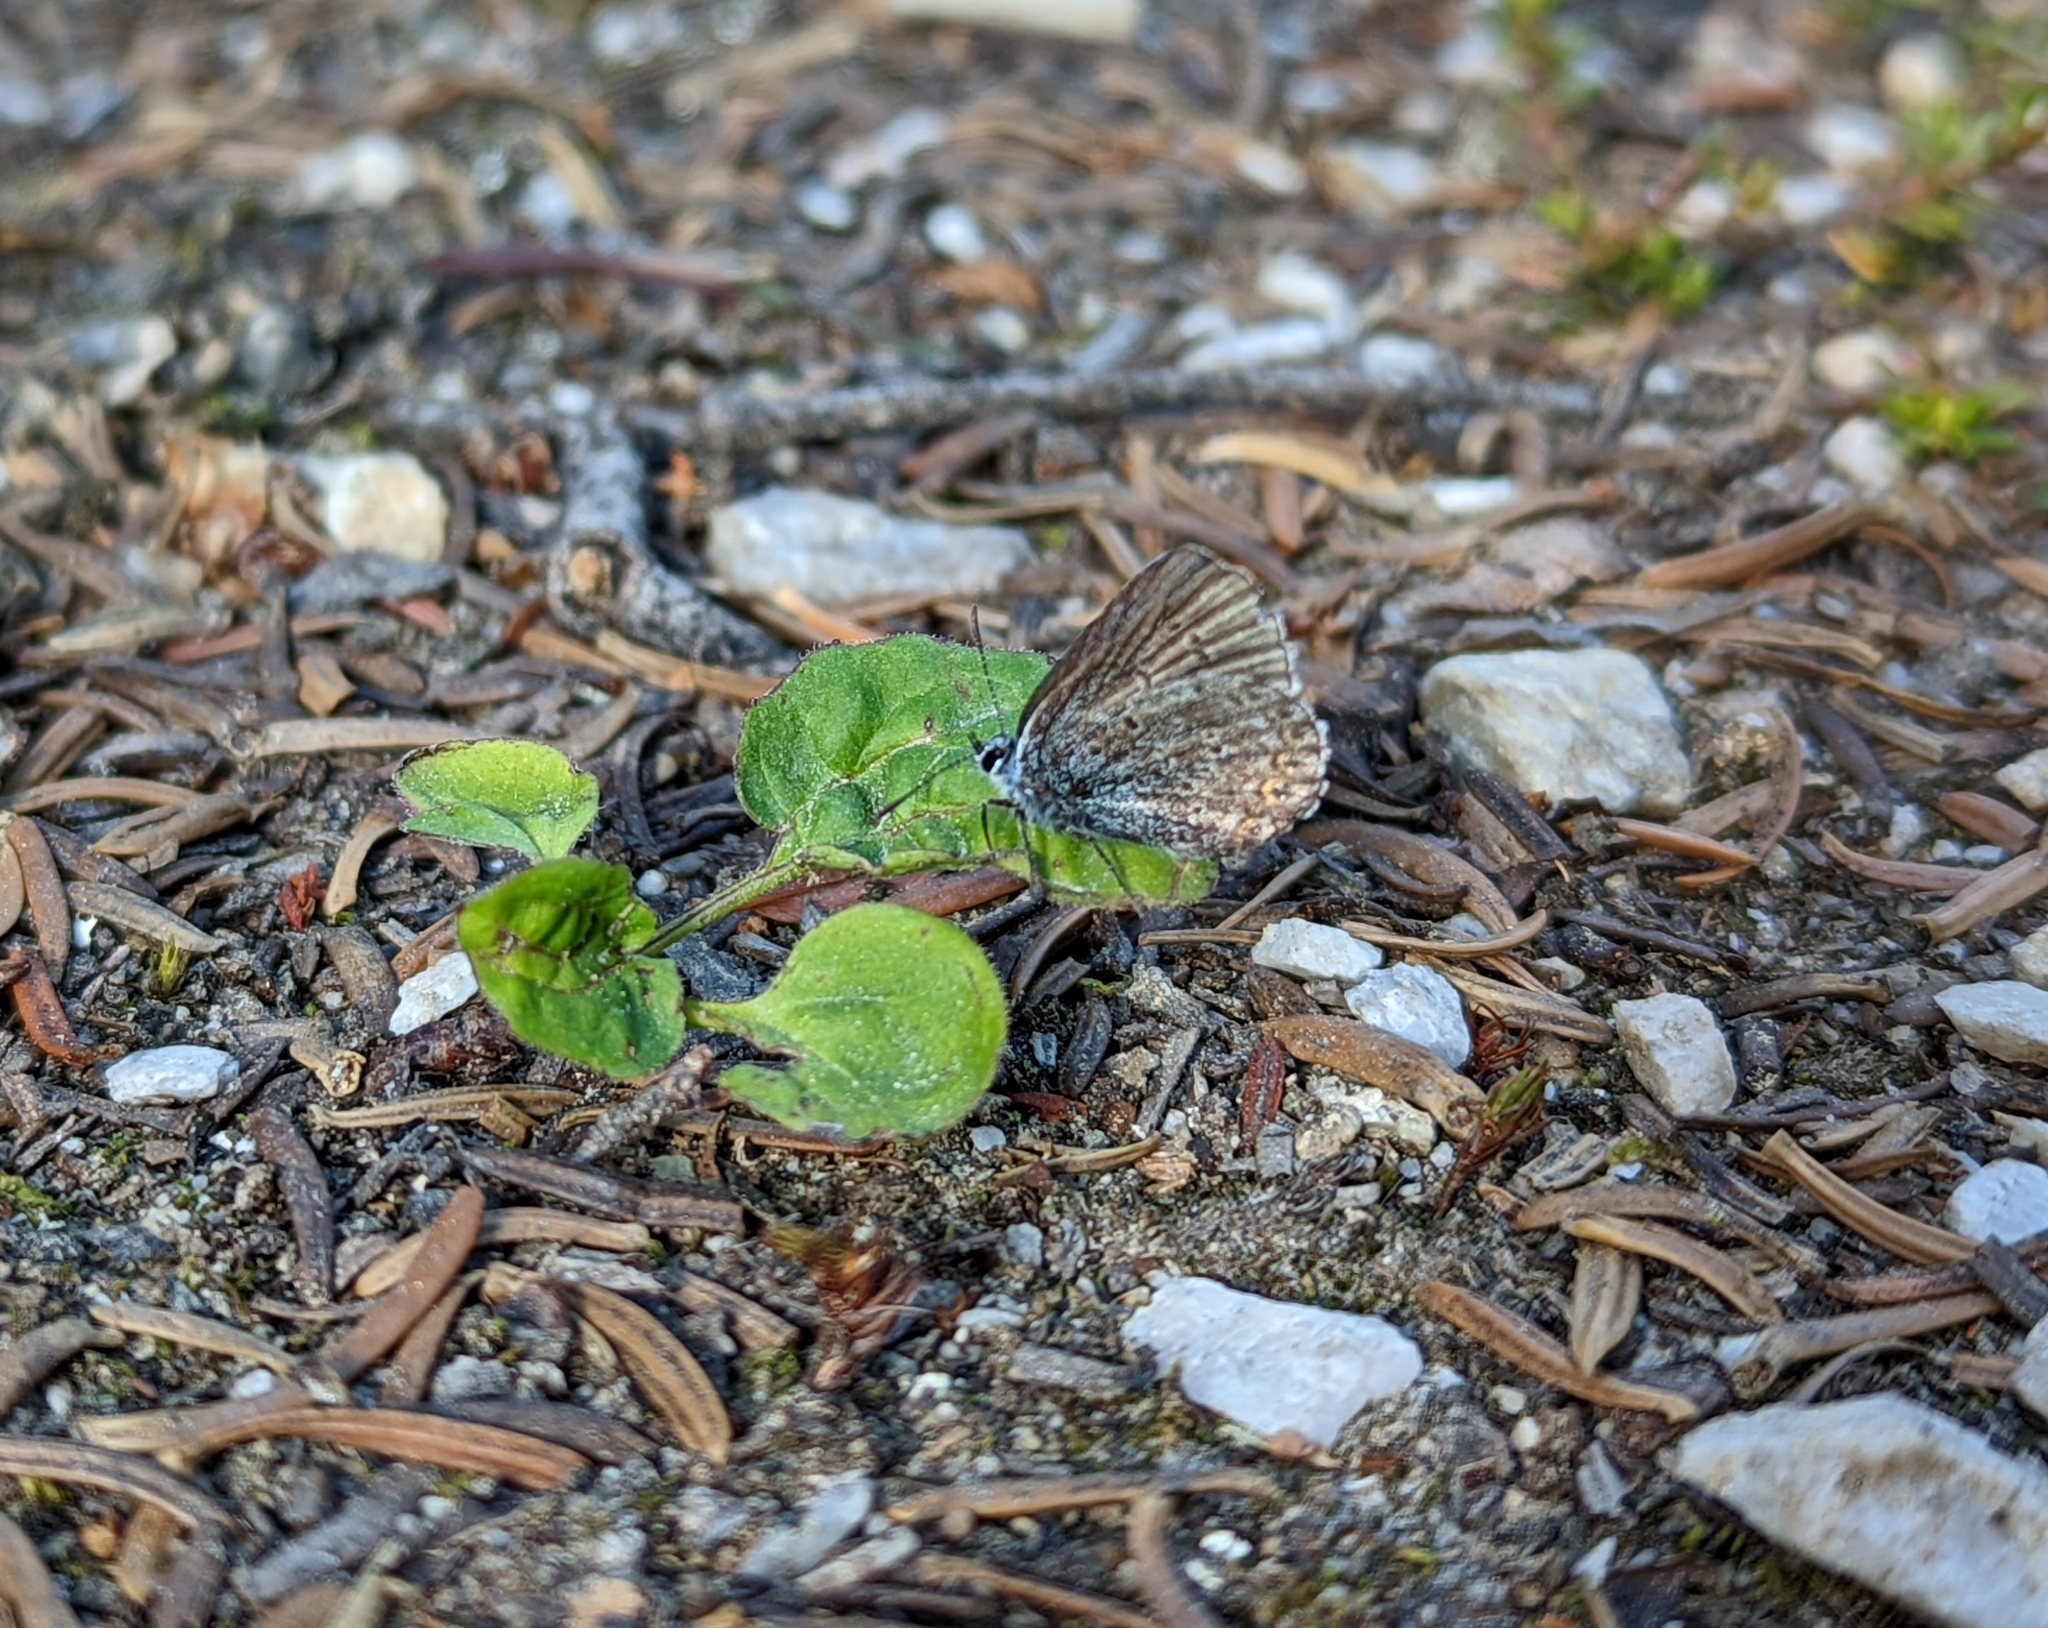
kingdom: Animalia
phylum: Arthropoda
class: Insecta
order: Lepidoptera
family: Lycaenidae
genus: Lycaeides
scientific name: Lycaeides idas
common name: Northern blue
